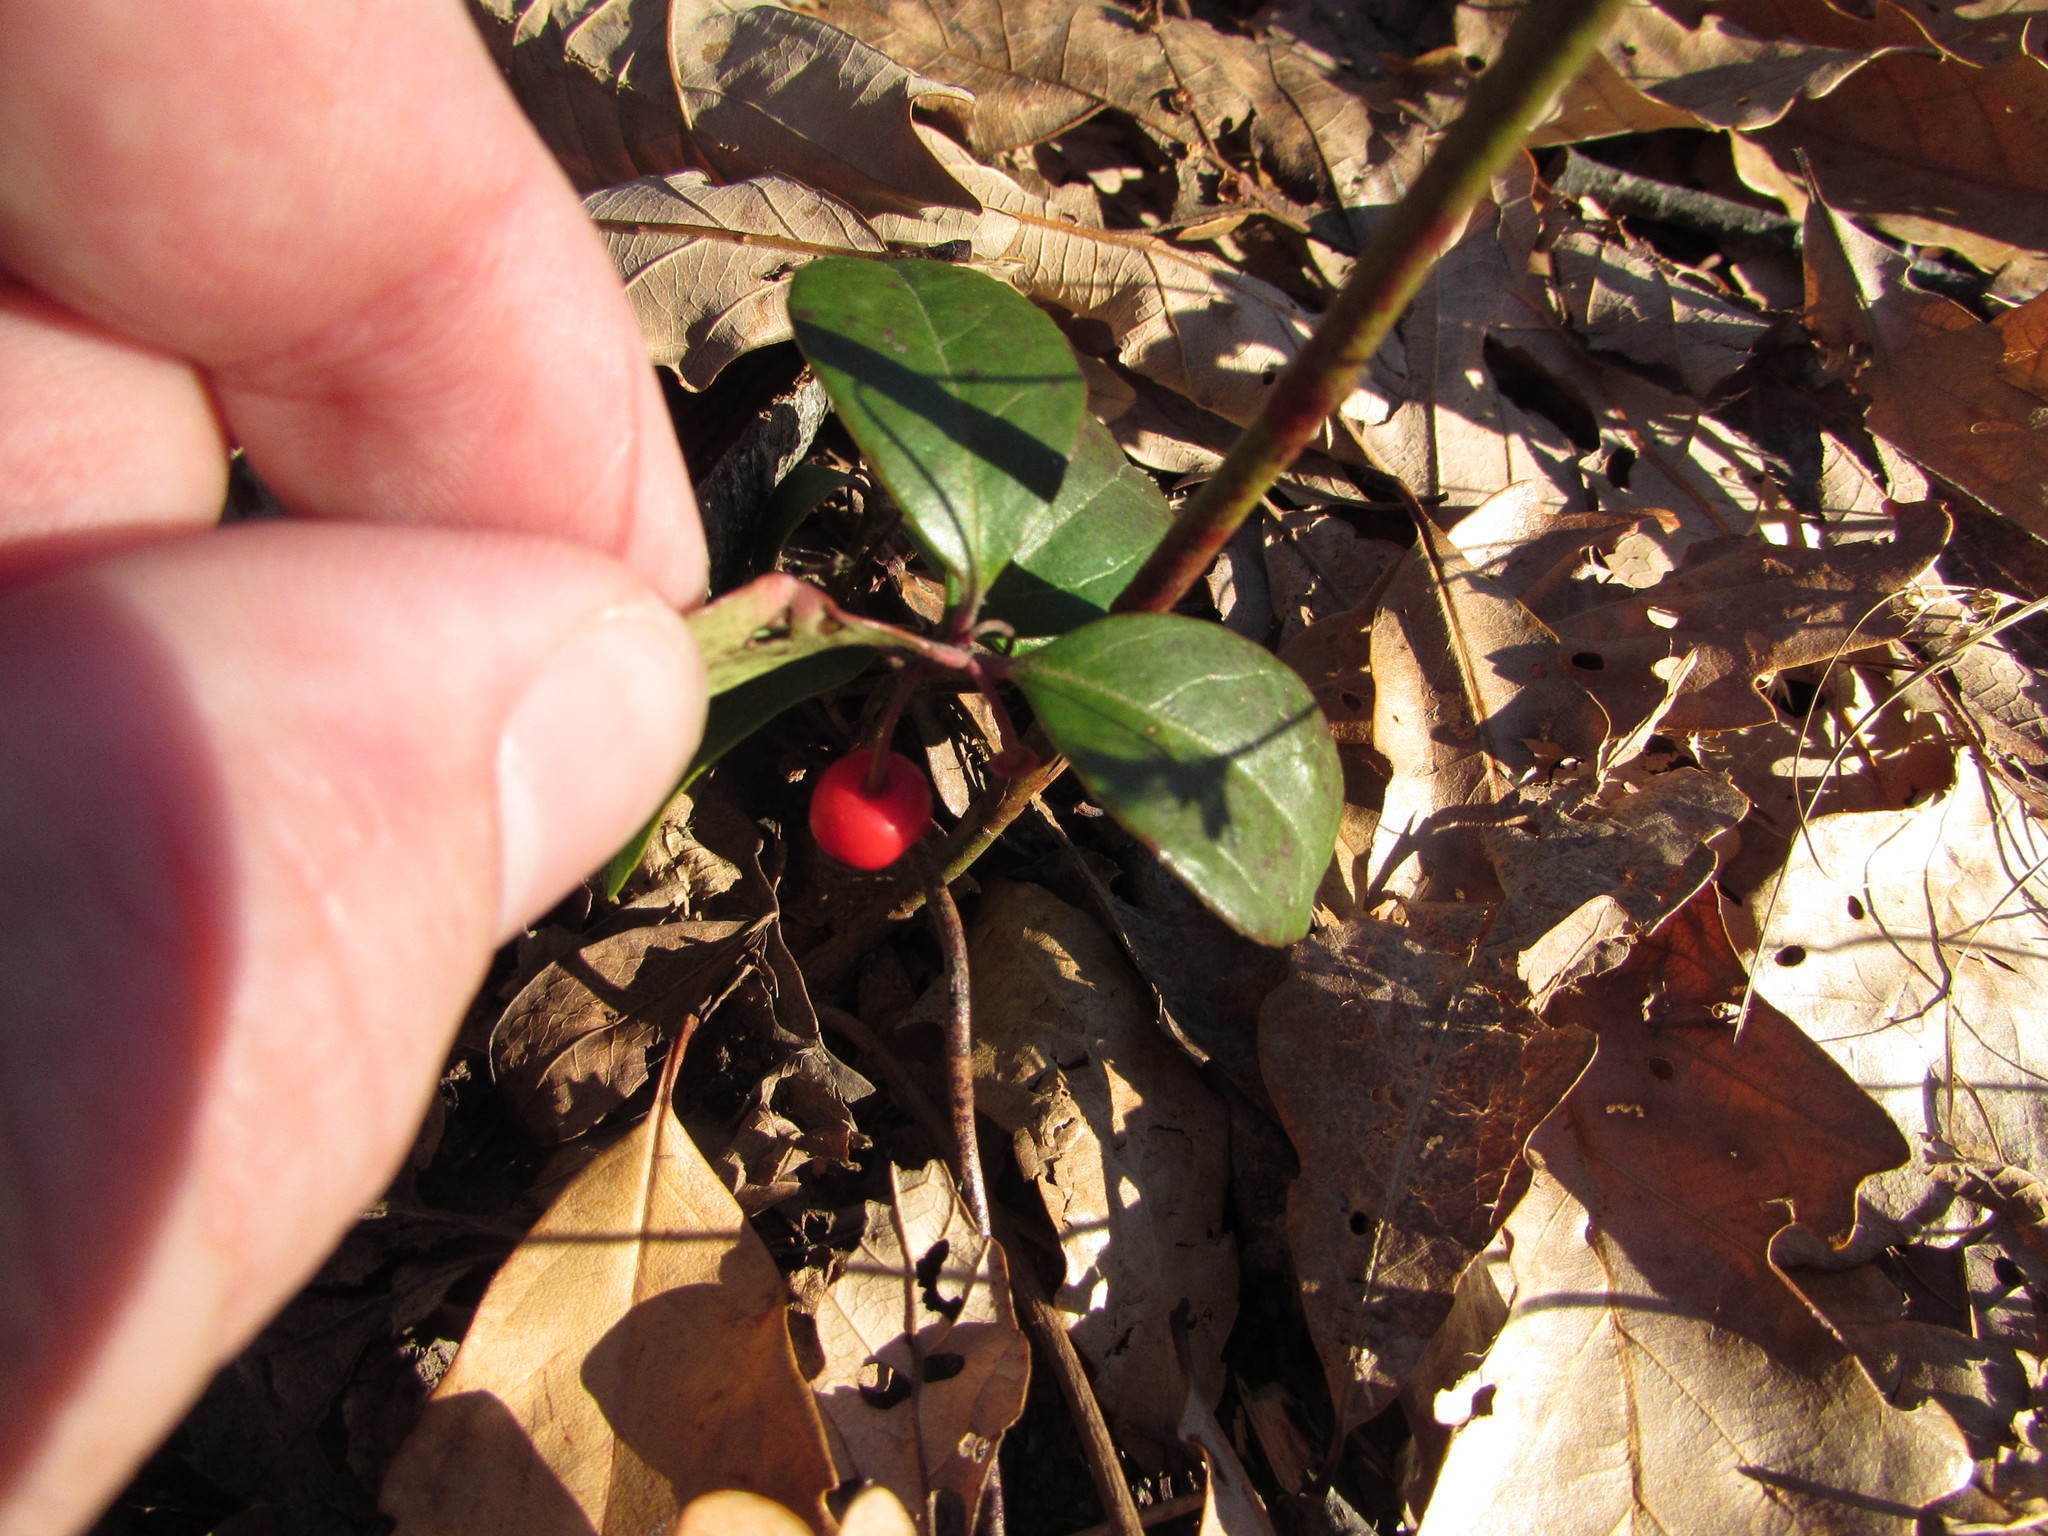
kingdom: Plantae
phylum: Tracheophyta
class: Magnoliopsida
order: Ericales
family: Ericaceae
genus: Gaultheria
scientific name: Gaultheria procumbens
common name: Checkerberry
